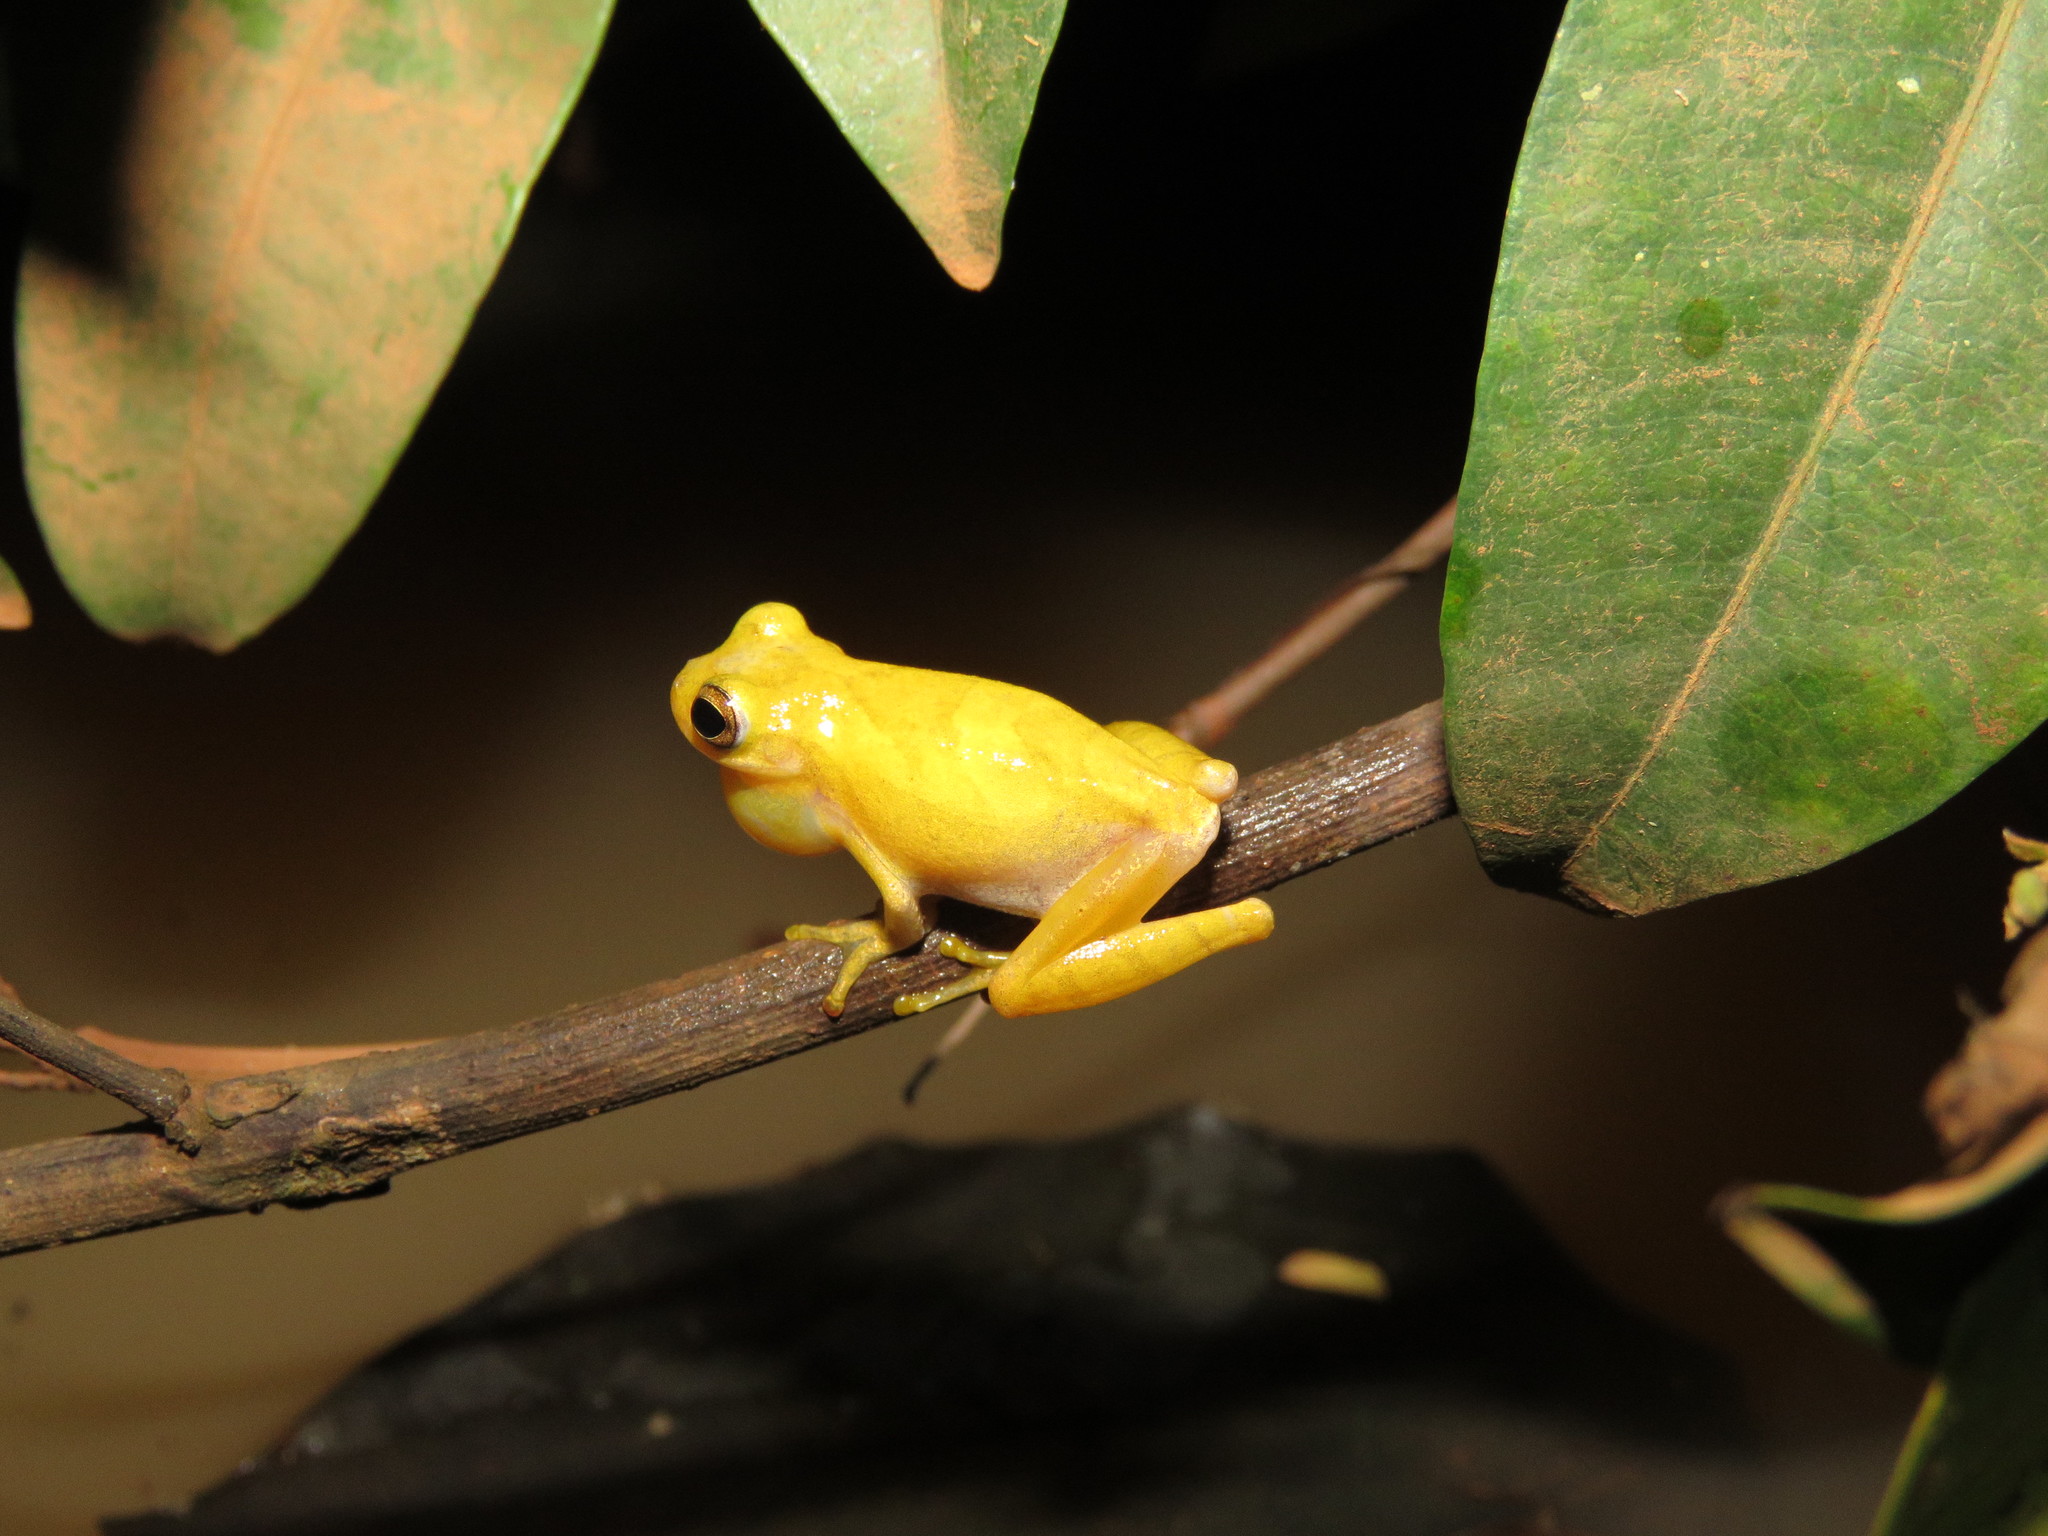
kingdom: Animalia
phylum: Chordata
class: Amphibia
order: Anura
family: Hylidae
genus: Dendropsophus
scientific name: Dendropsophus minutus
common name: Lesser treefrog
